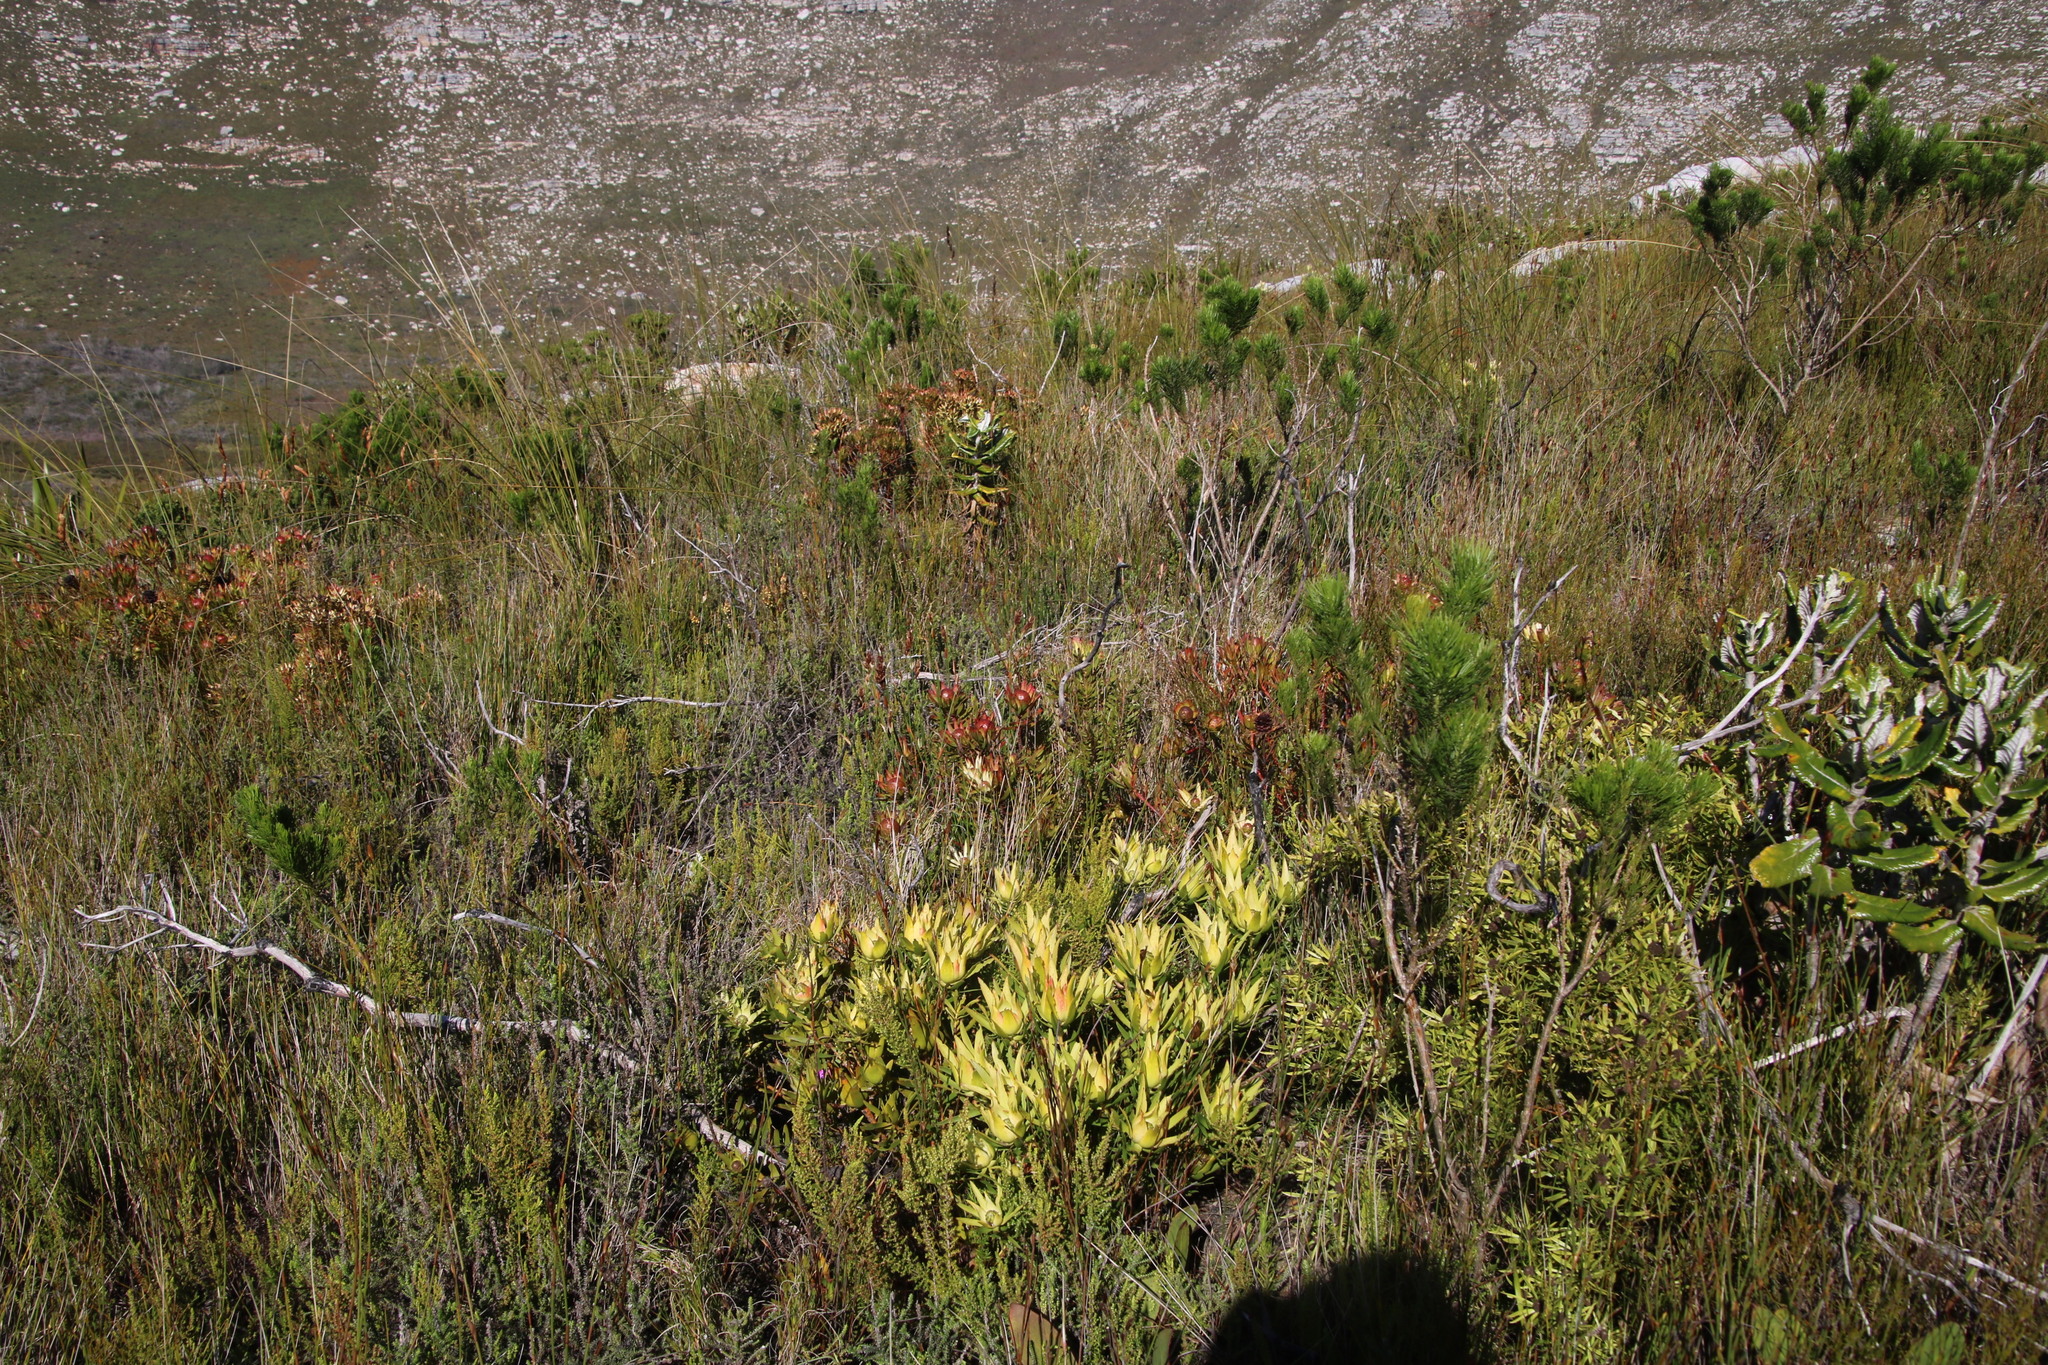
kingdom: Plantae
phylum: Tracheophyta
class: Magnoliopsida
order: Proteales
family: Proteaceae
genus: Leucadendron
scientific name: Leucadendron salignum
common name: Common sunshine conebush
